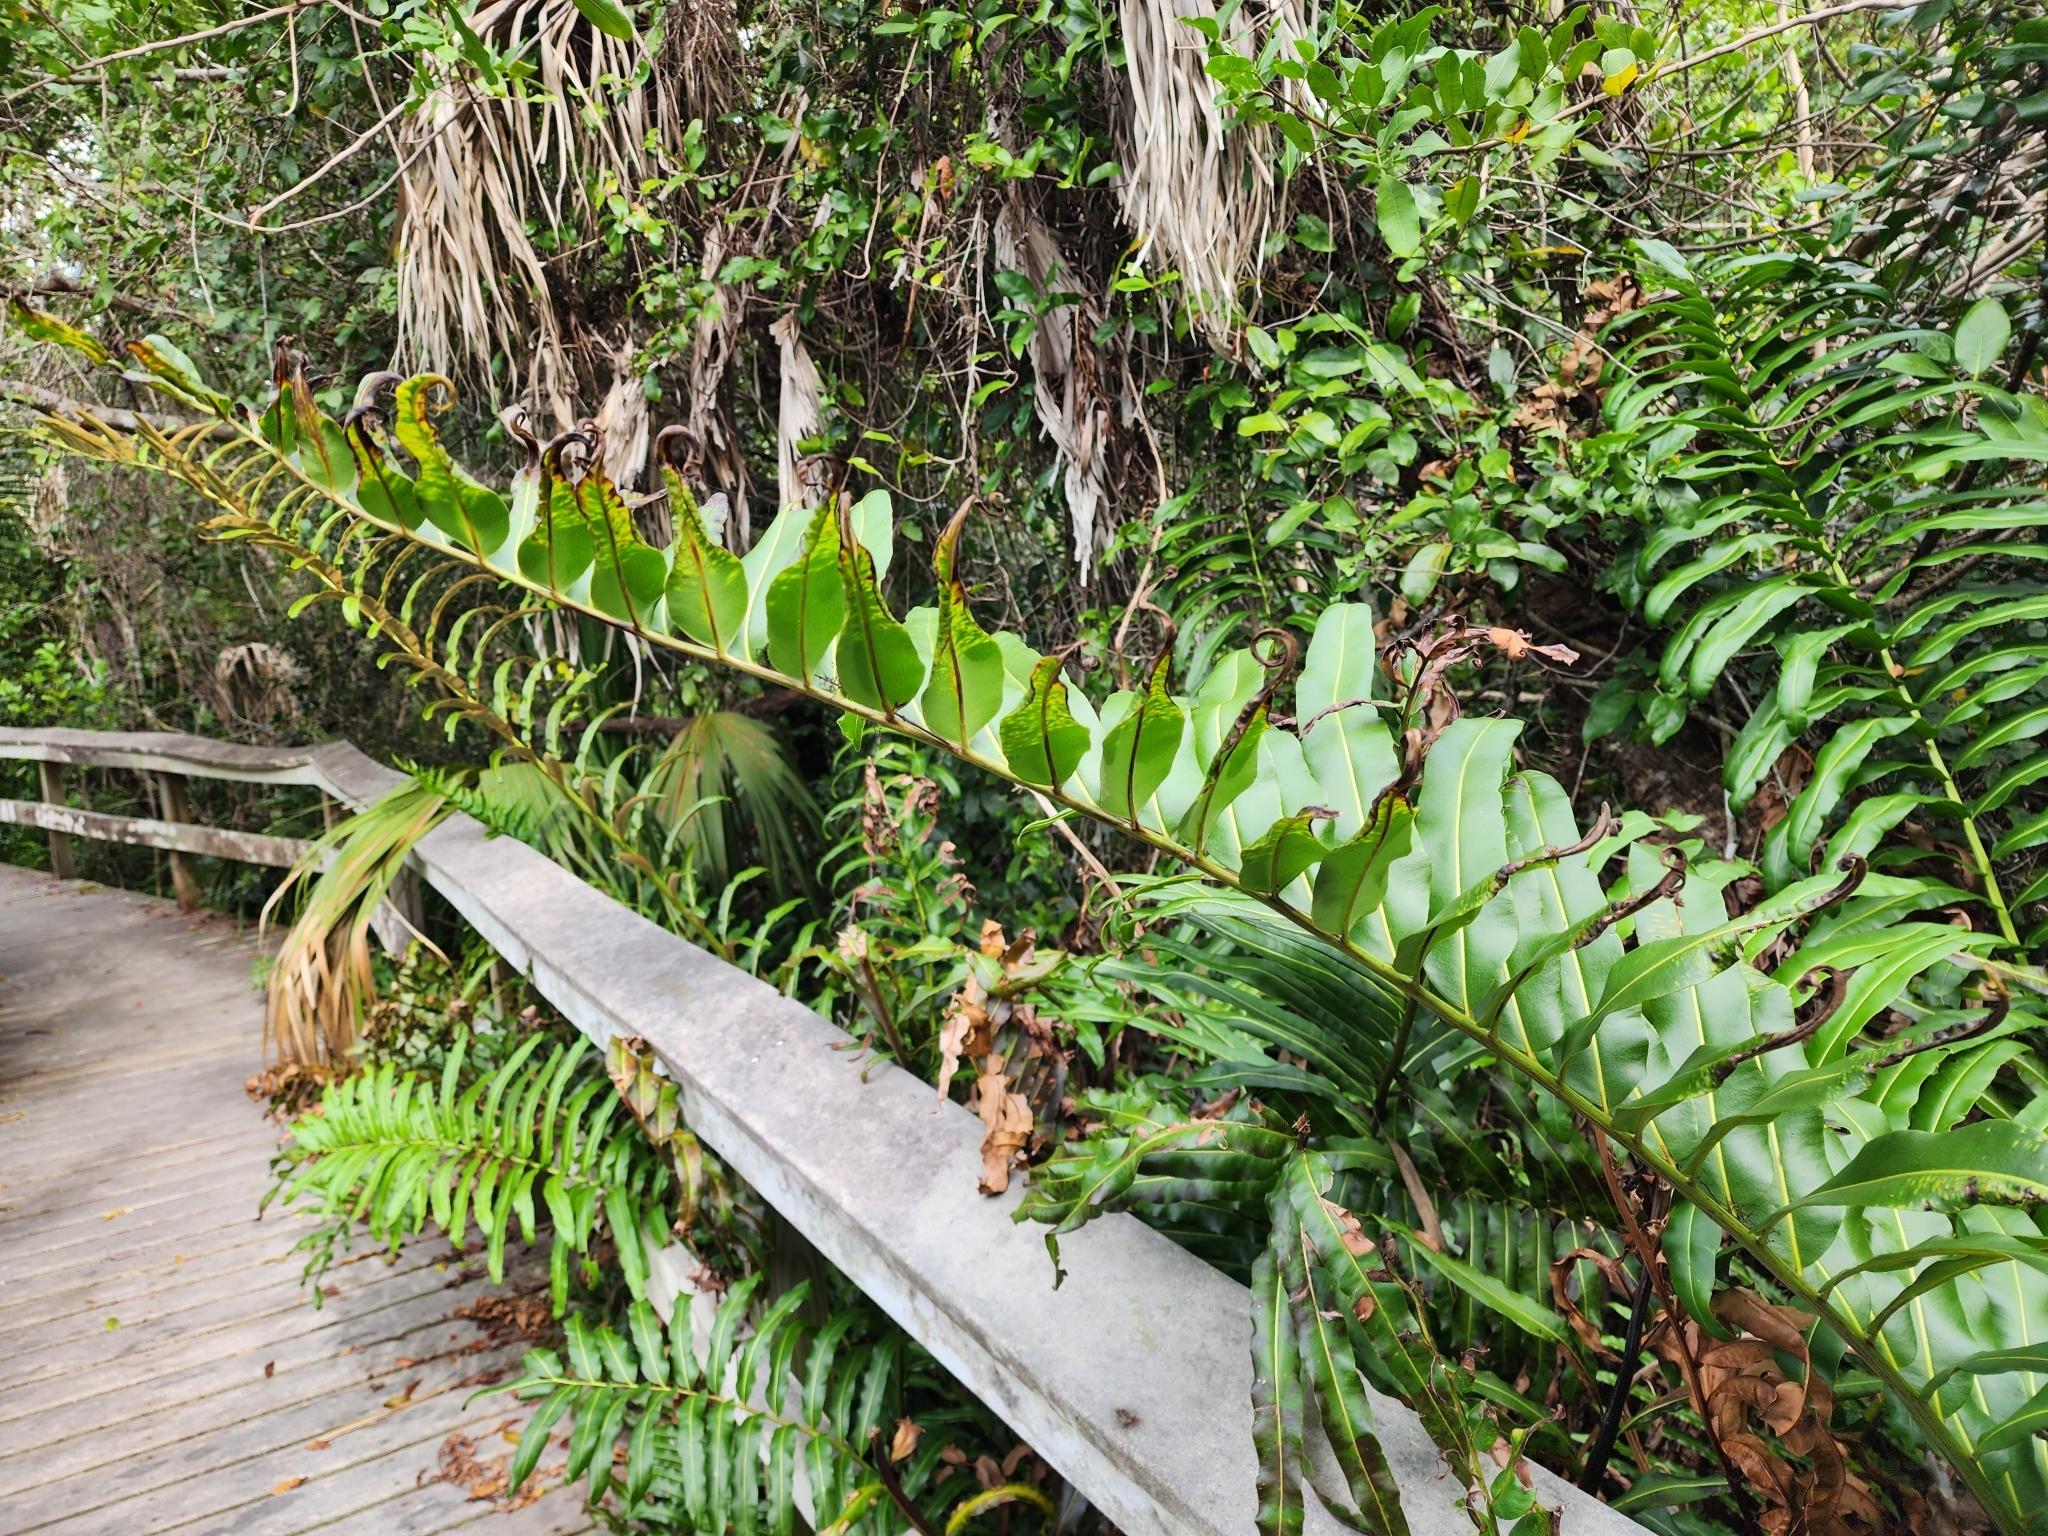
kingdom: Plantae
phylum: Tracheophyta
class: Polypodiopsida
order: Polypodiales
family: Pteridaceae
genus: Acrostichum
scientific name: Acrostichum danaeifolium
